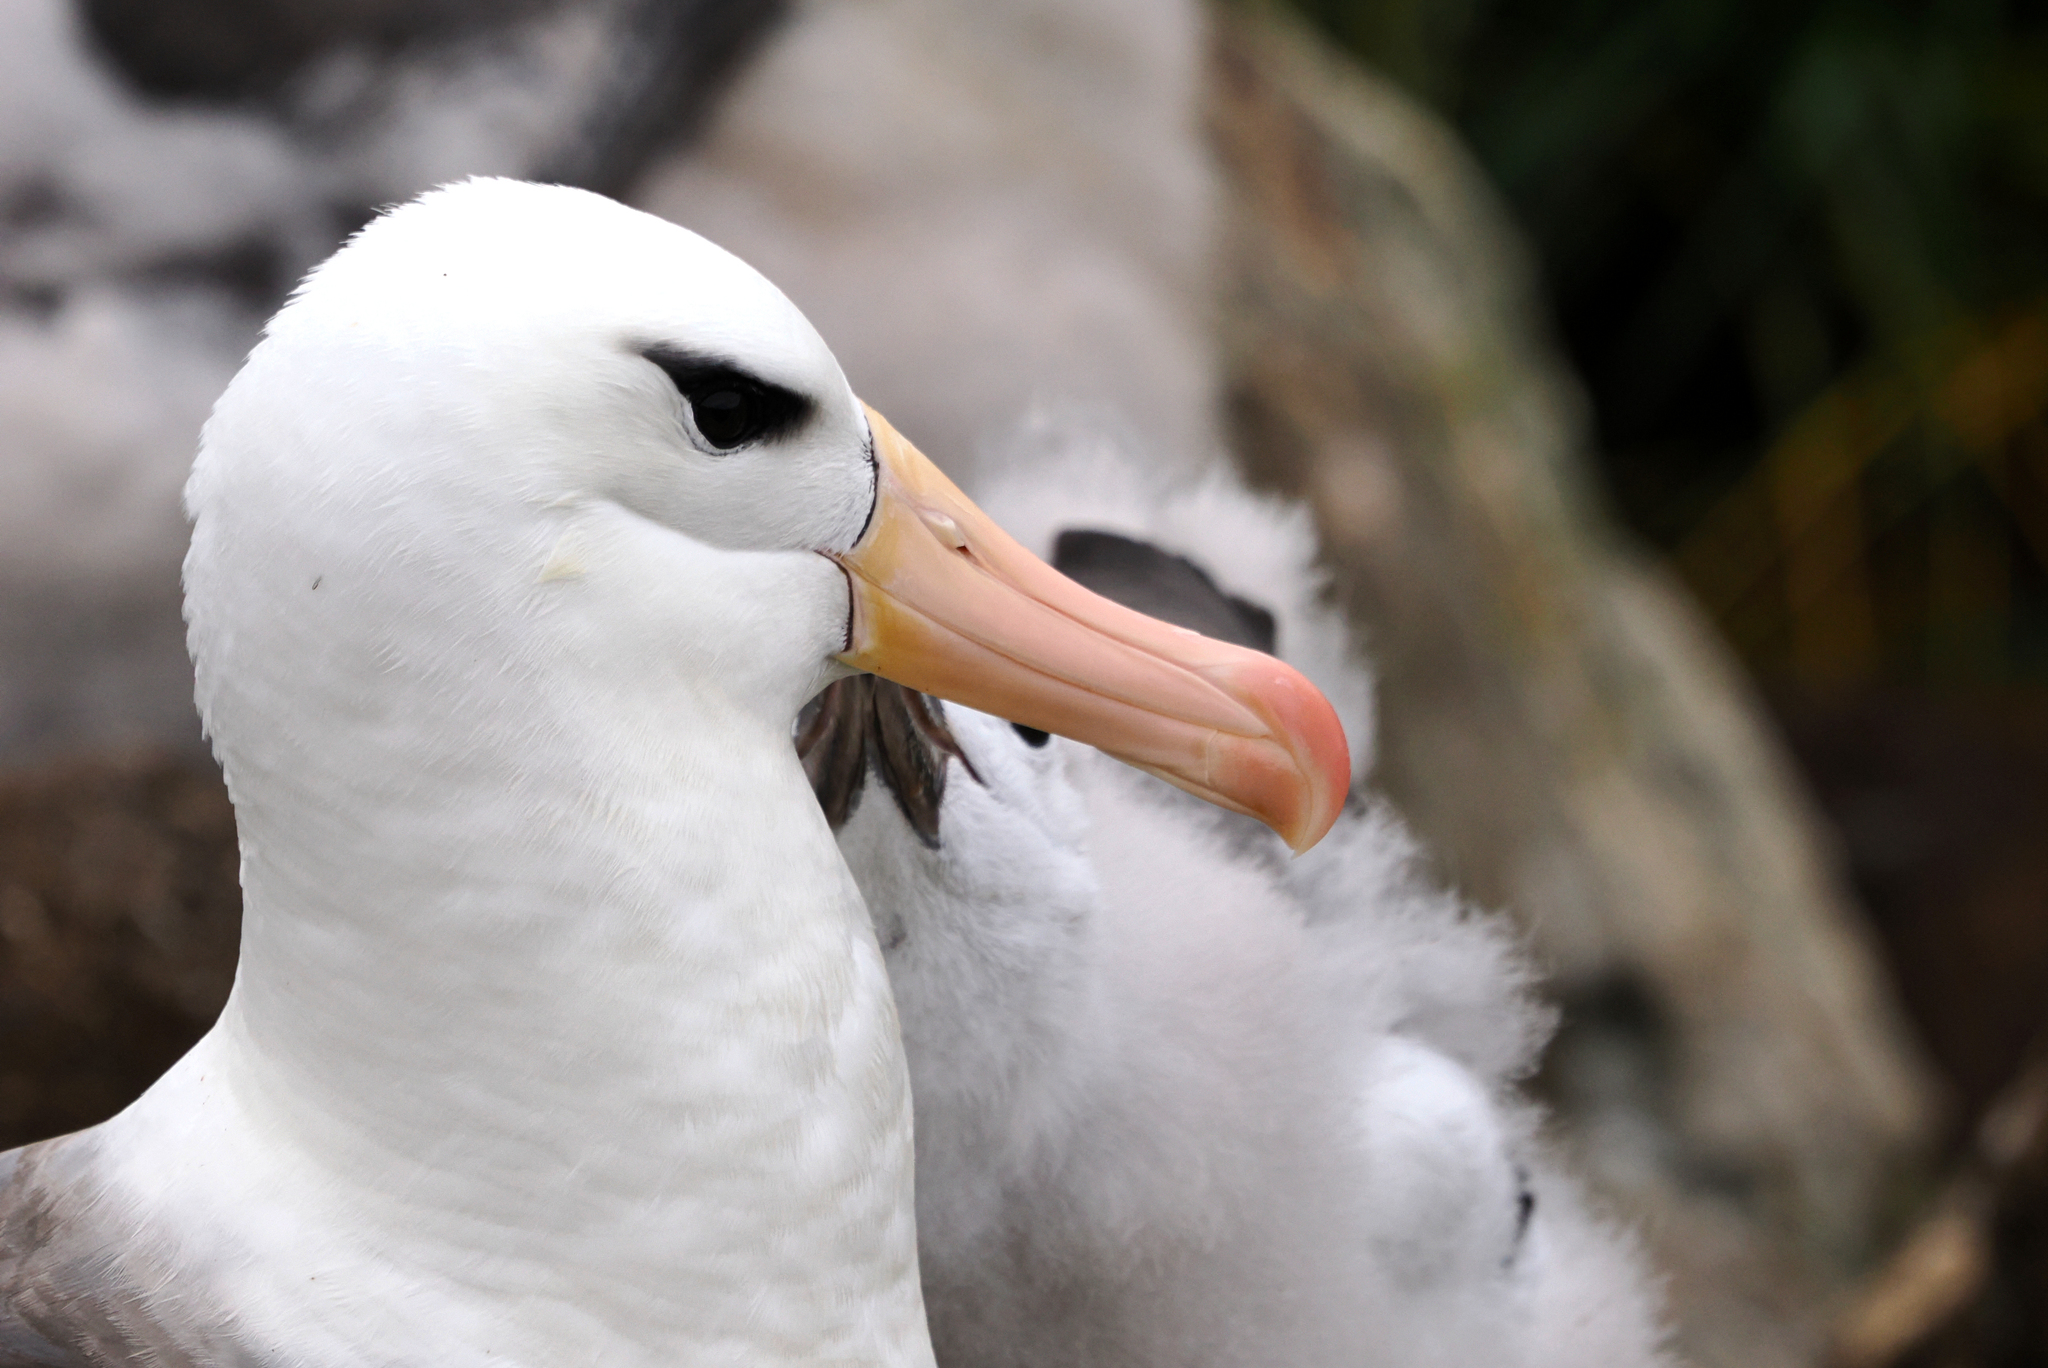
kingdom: Animalia
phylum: Chordata
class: Aves
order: Procellariiformes
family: Diomedeidae
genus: Thalassarche
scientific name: Thalassarche melanophris
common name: Black-browed albatross
